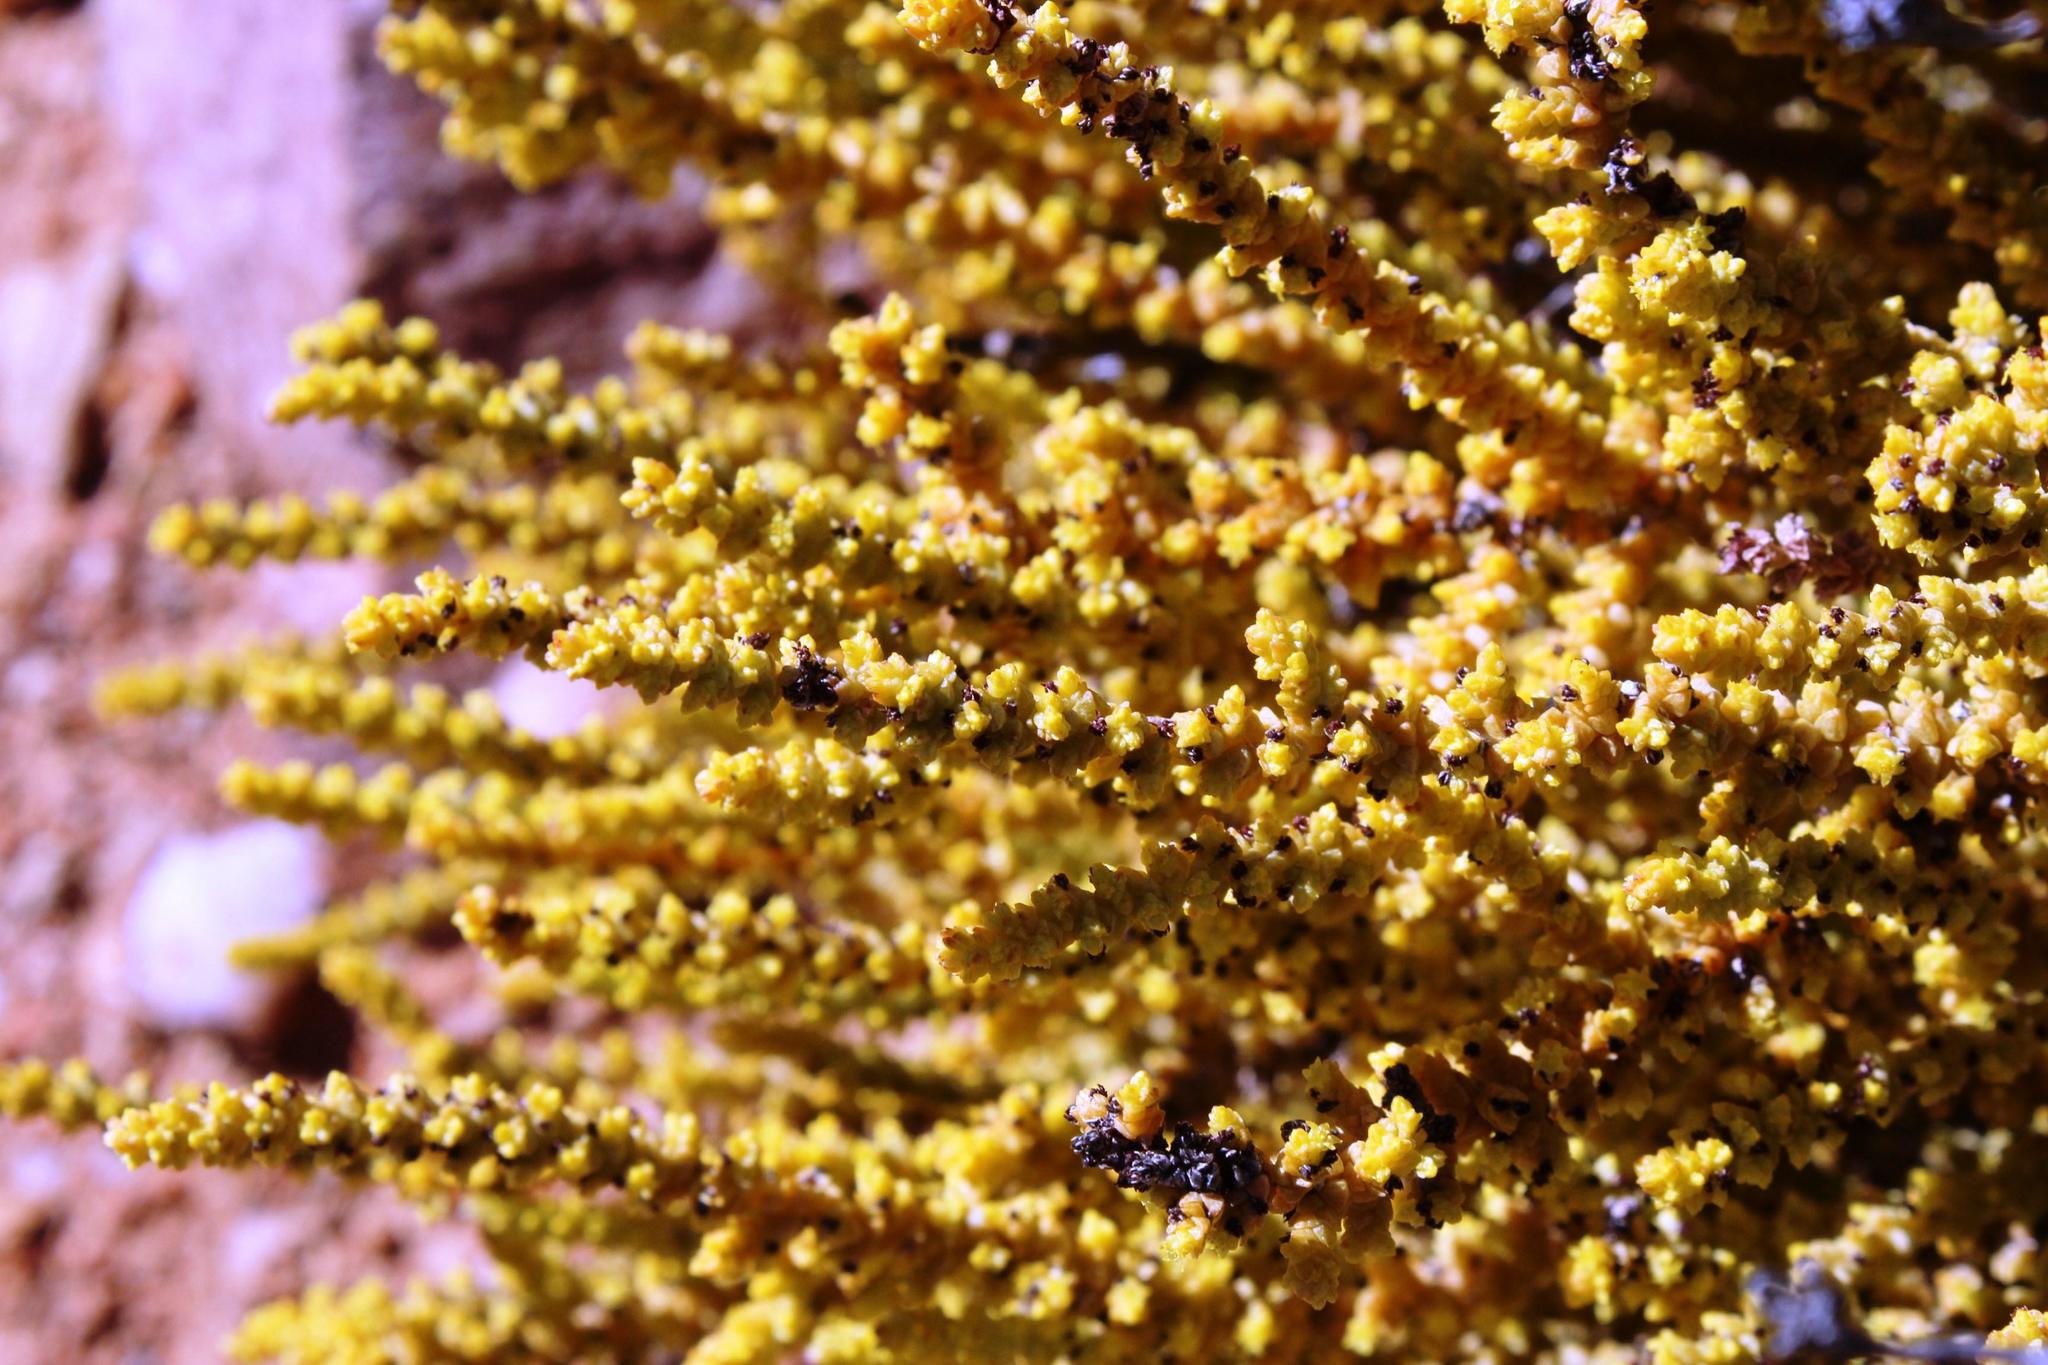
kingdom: Plantae
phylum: Tracheophyta
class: Magnoliopsida
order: Saxifragales
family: Crassulaceae
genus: Crassula
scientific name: Crassula muscosa
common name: Toy-cypress
